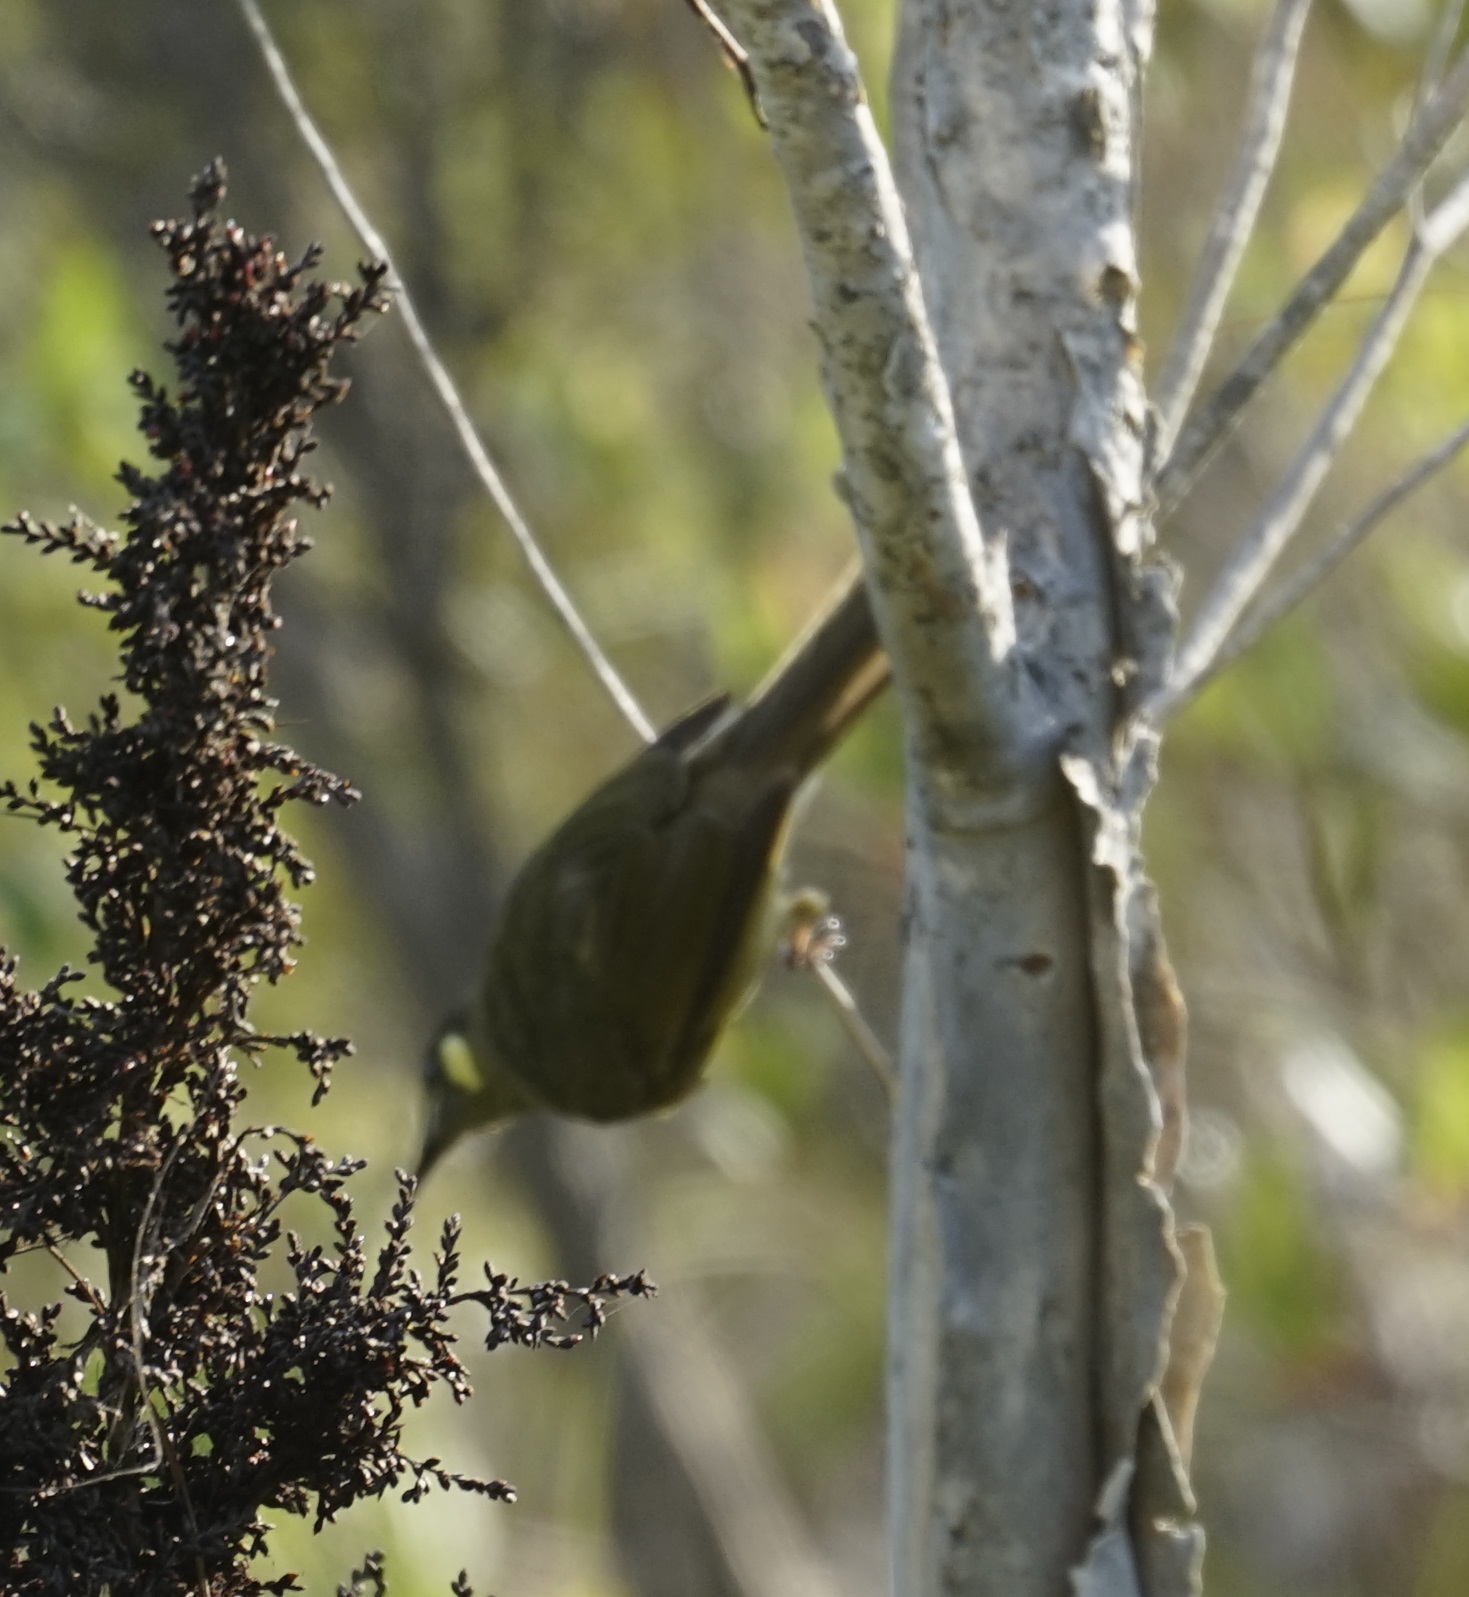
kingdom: Animalia
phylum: Chordata
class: Aves
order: Passeriformes
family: Meliphagidae
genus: Meliphaga
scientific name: Meliphaga lewinii
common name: Lewin's honeyeater
